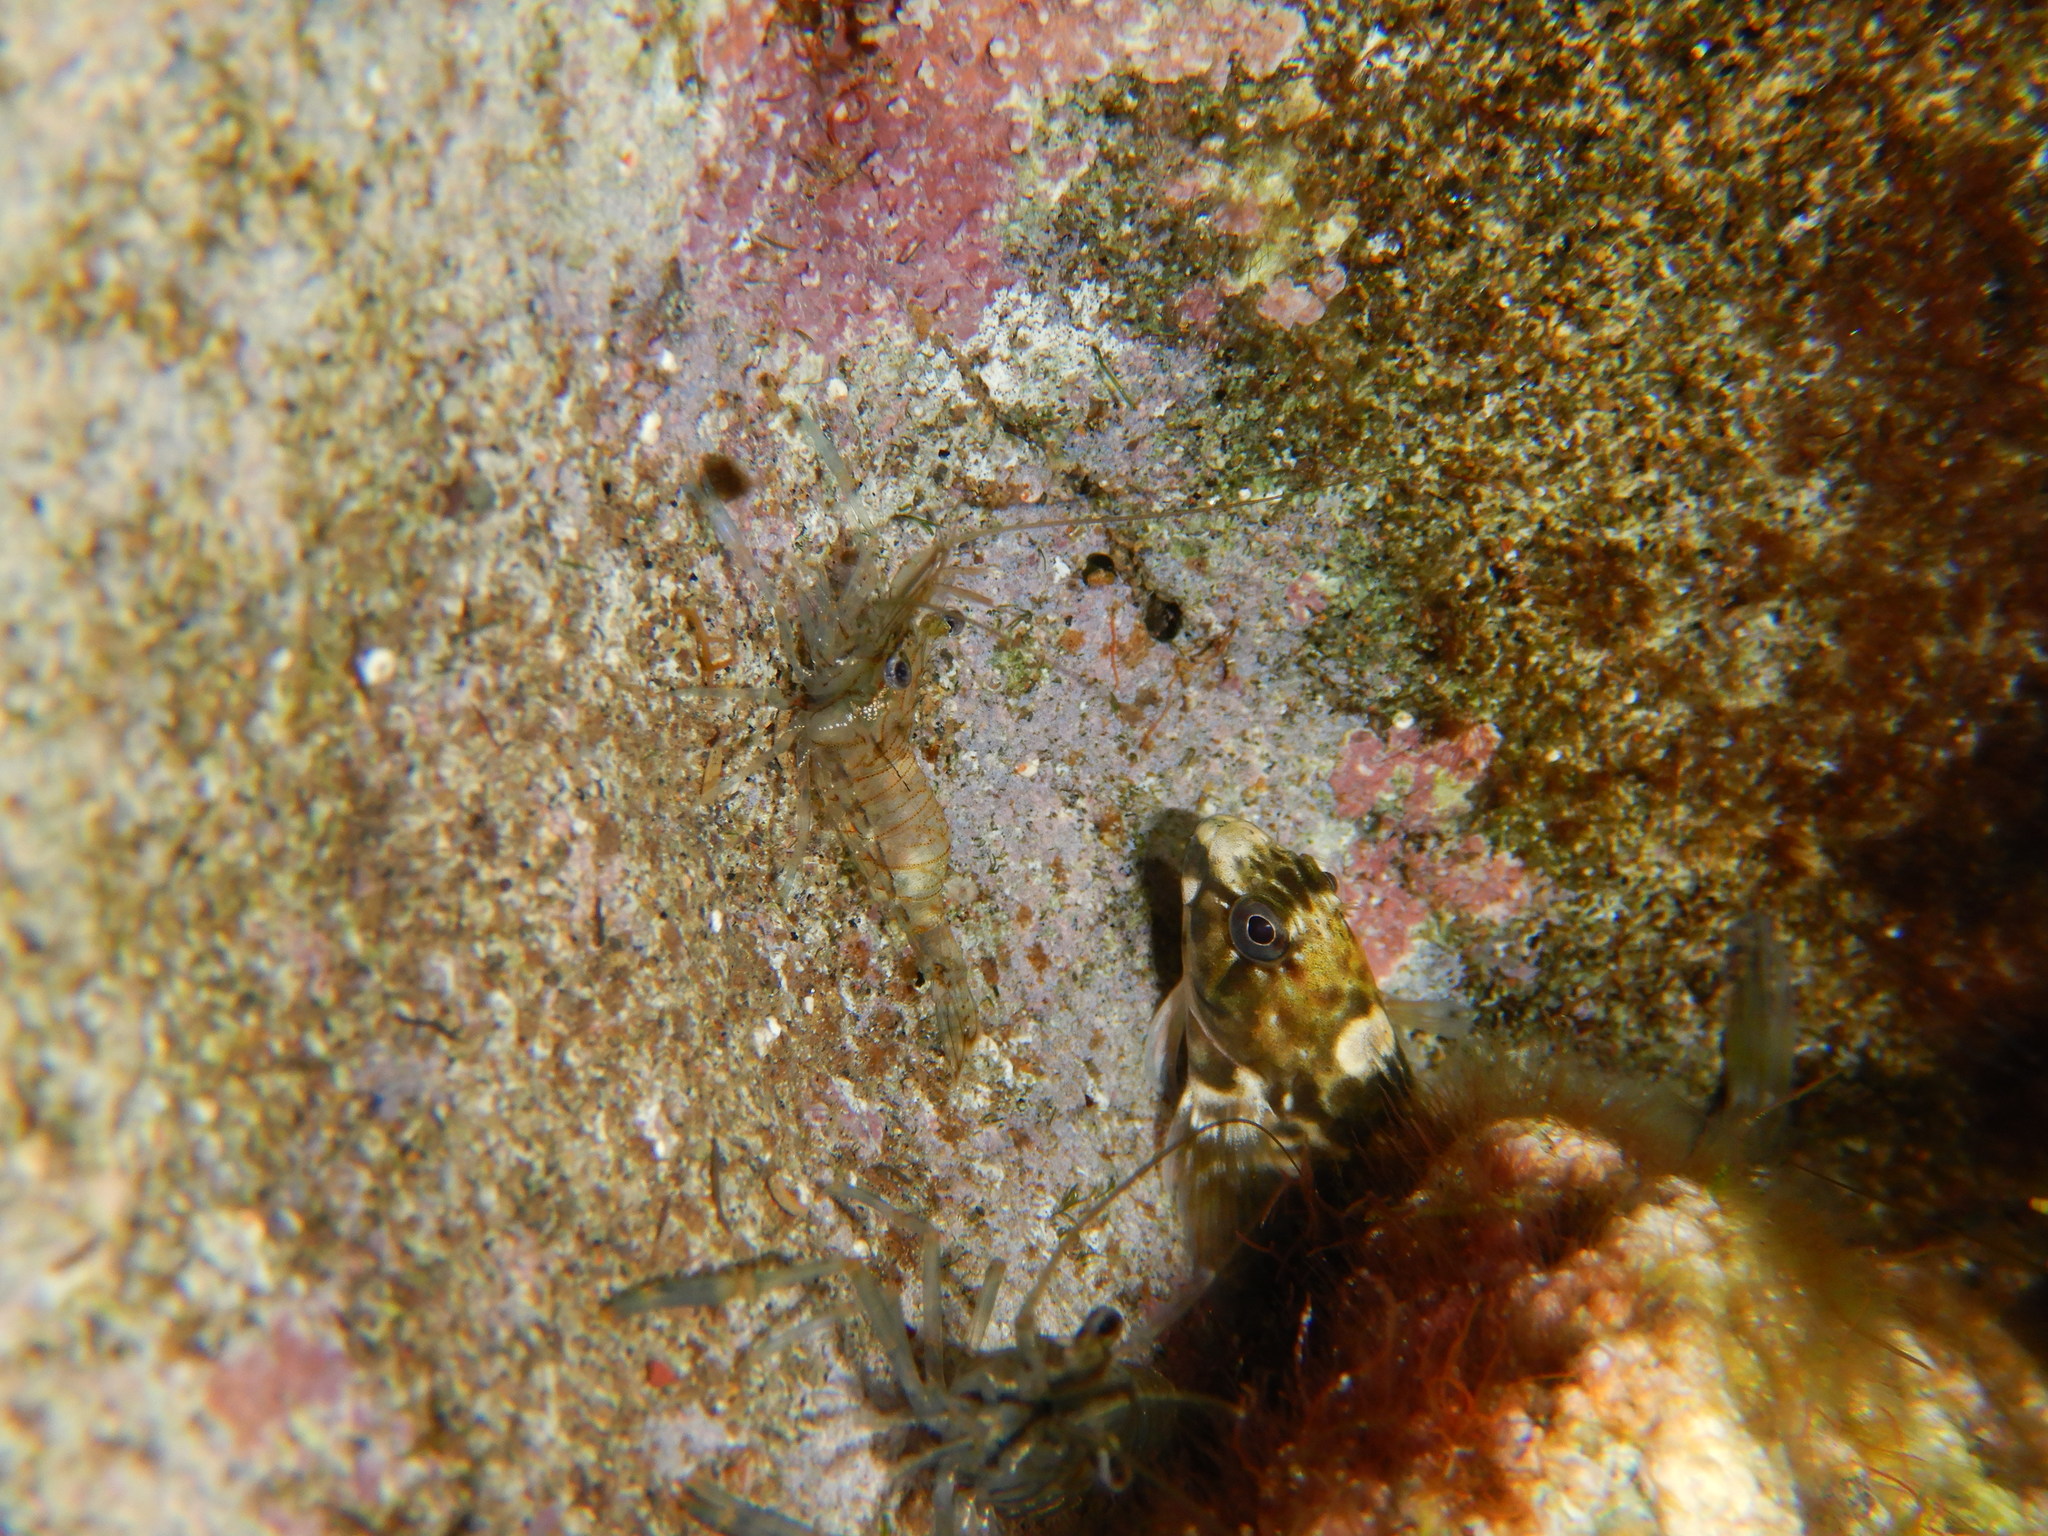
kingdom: Animalia
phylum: Chordata
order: Perciformes
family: Blenniidae
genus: Parablennius
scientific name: Parablennius parvicornis
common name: Rock-pool blenny
